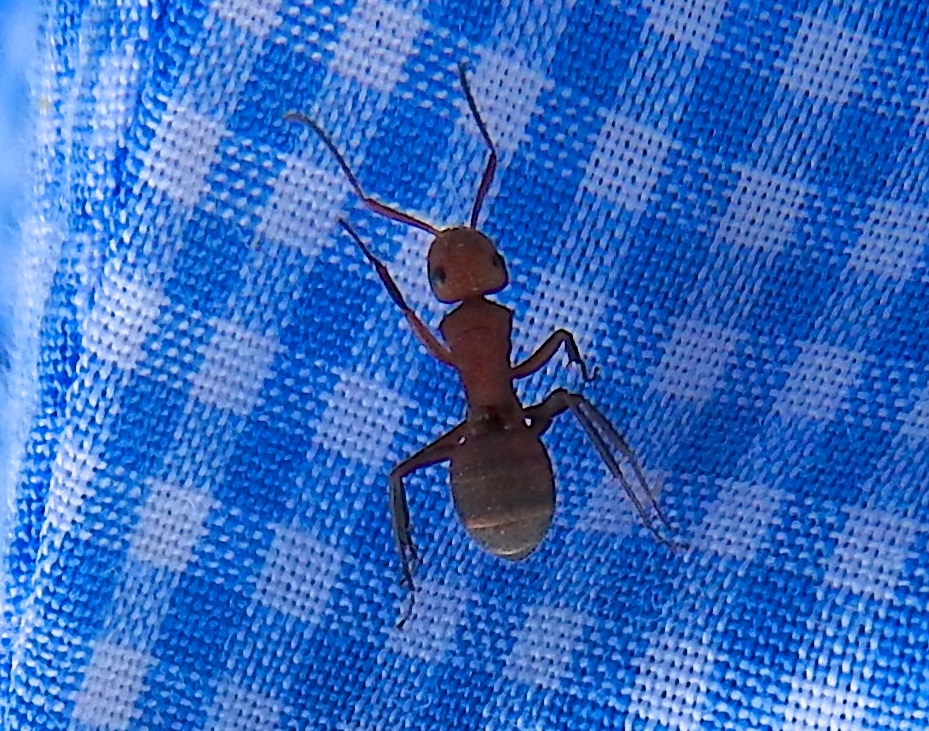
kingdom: Animalia
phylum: Arthropoda
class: Insecta
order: Hymenoptera
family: Formicidae
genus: Camponotus
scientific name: Camponotus rectangularis
